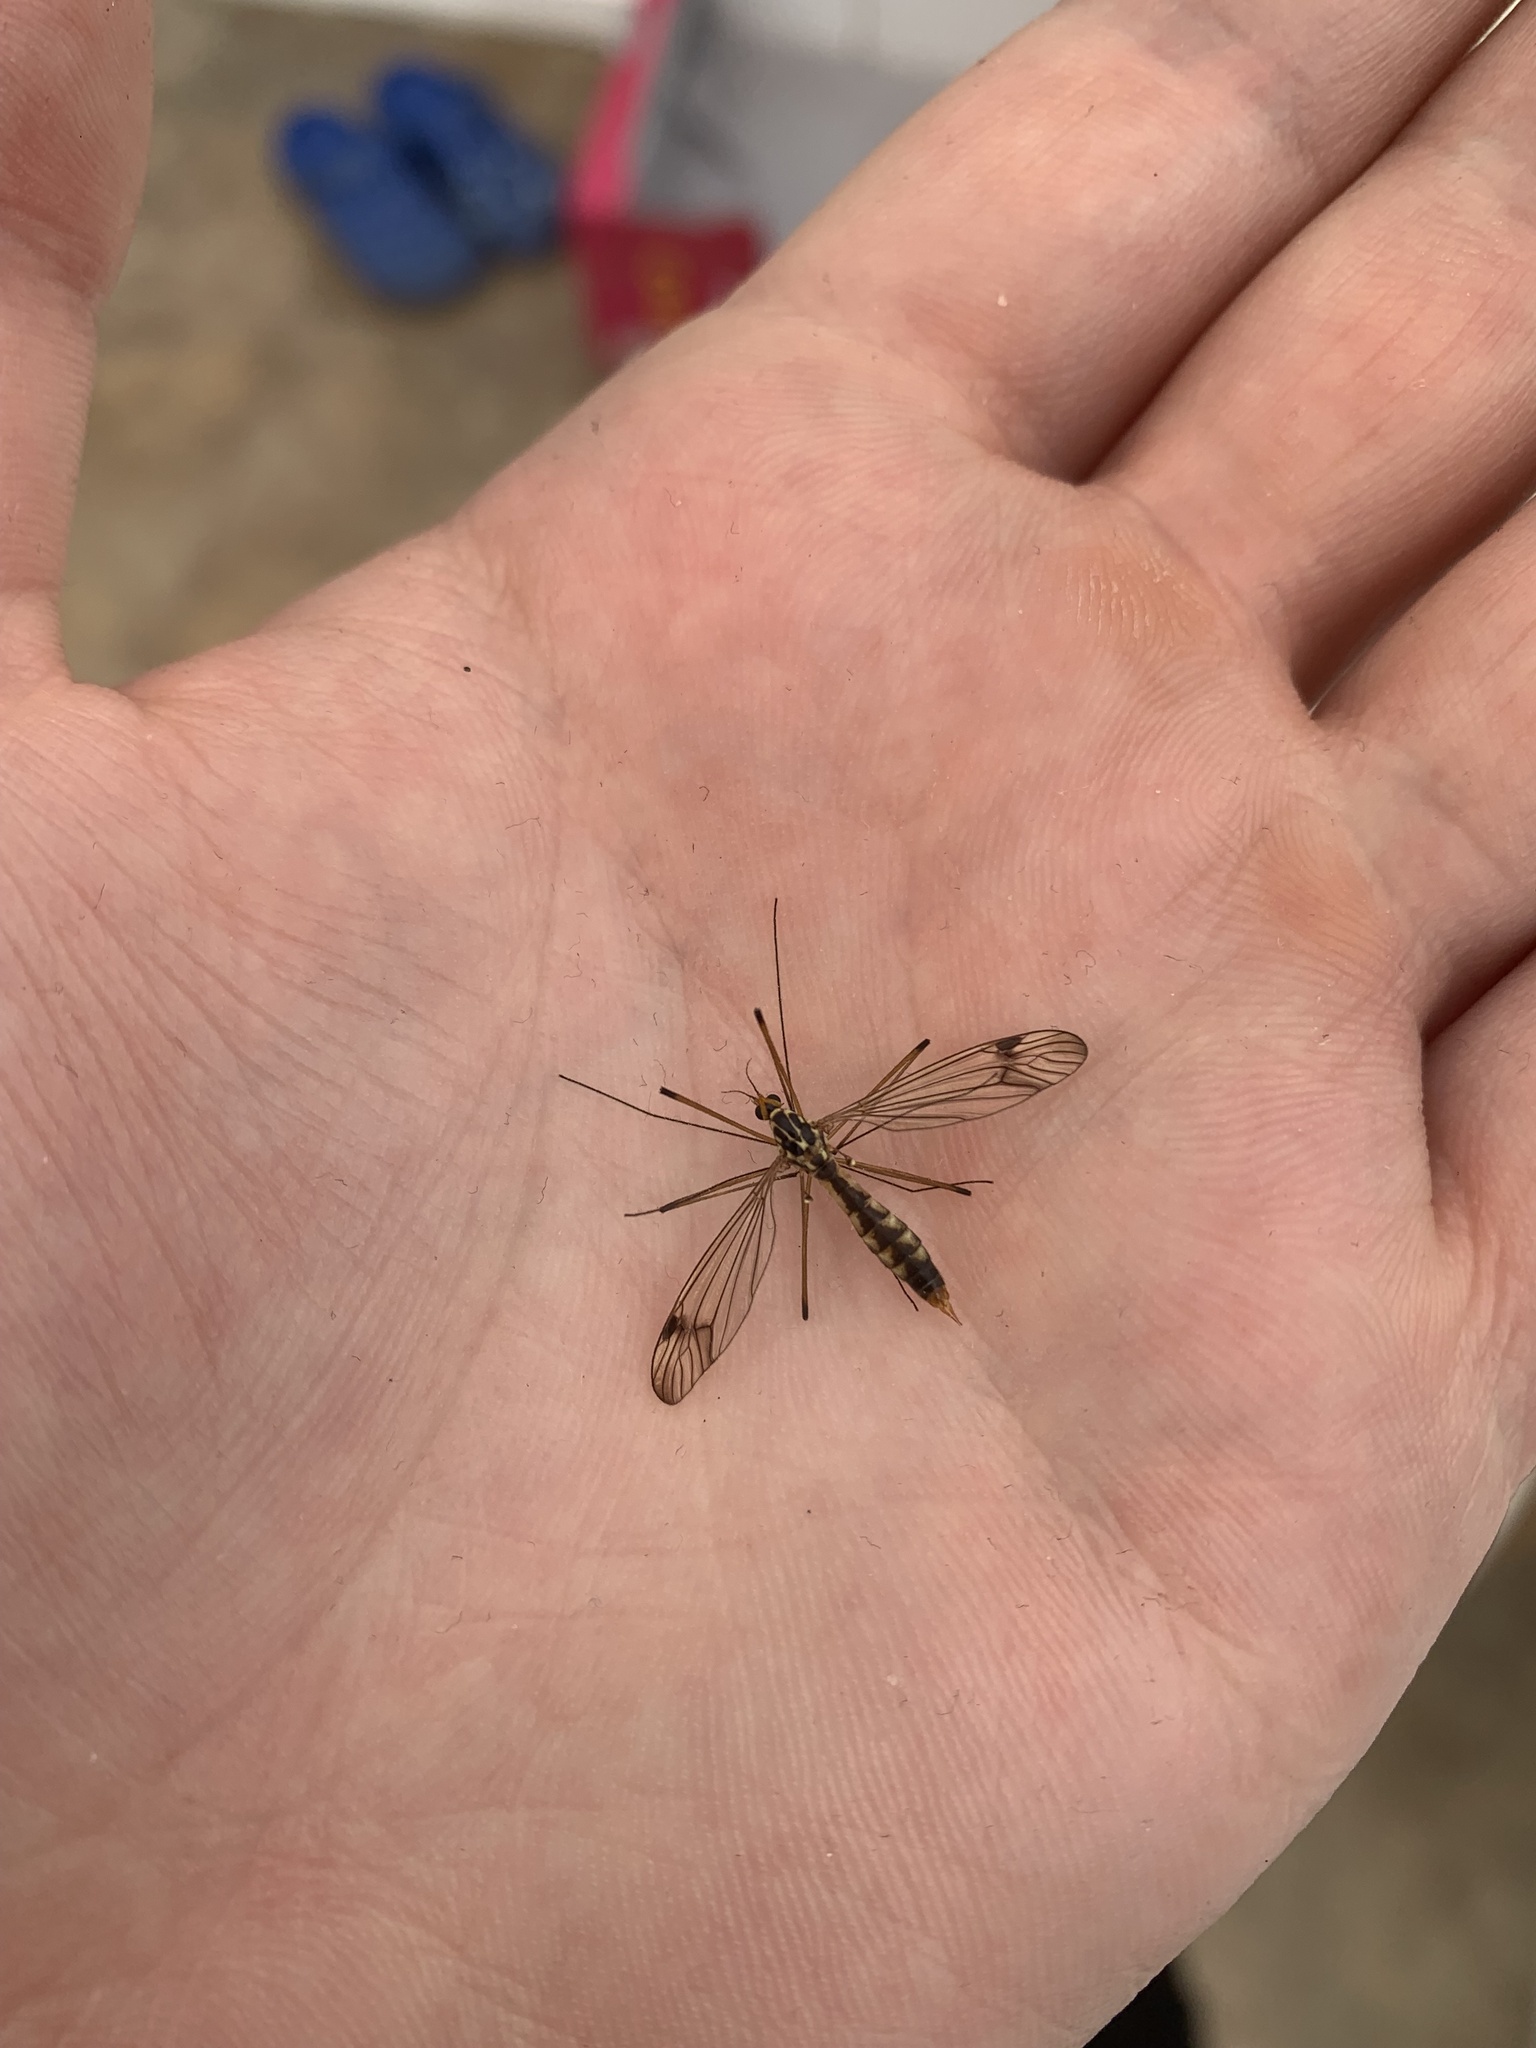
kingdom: Animalia
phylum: Arthropoda
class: Insecta
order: Diptera
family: Tipulidae
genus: Nephrotoma
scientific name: Nephrotoma quadrifaria
